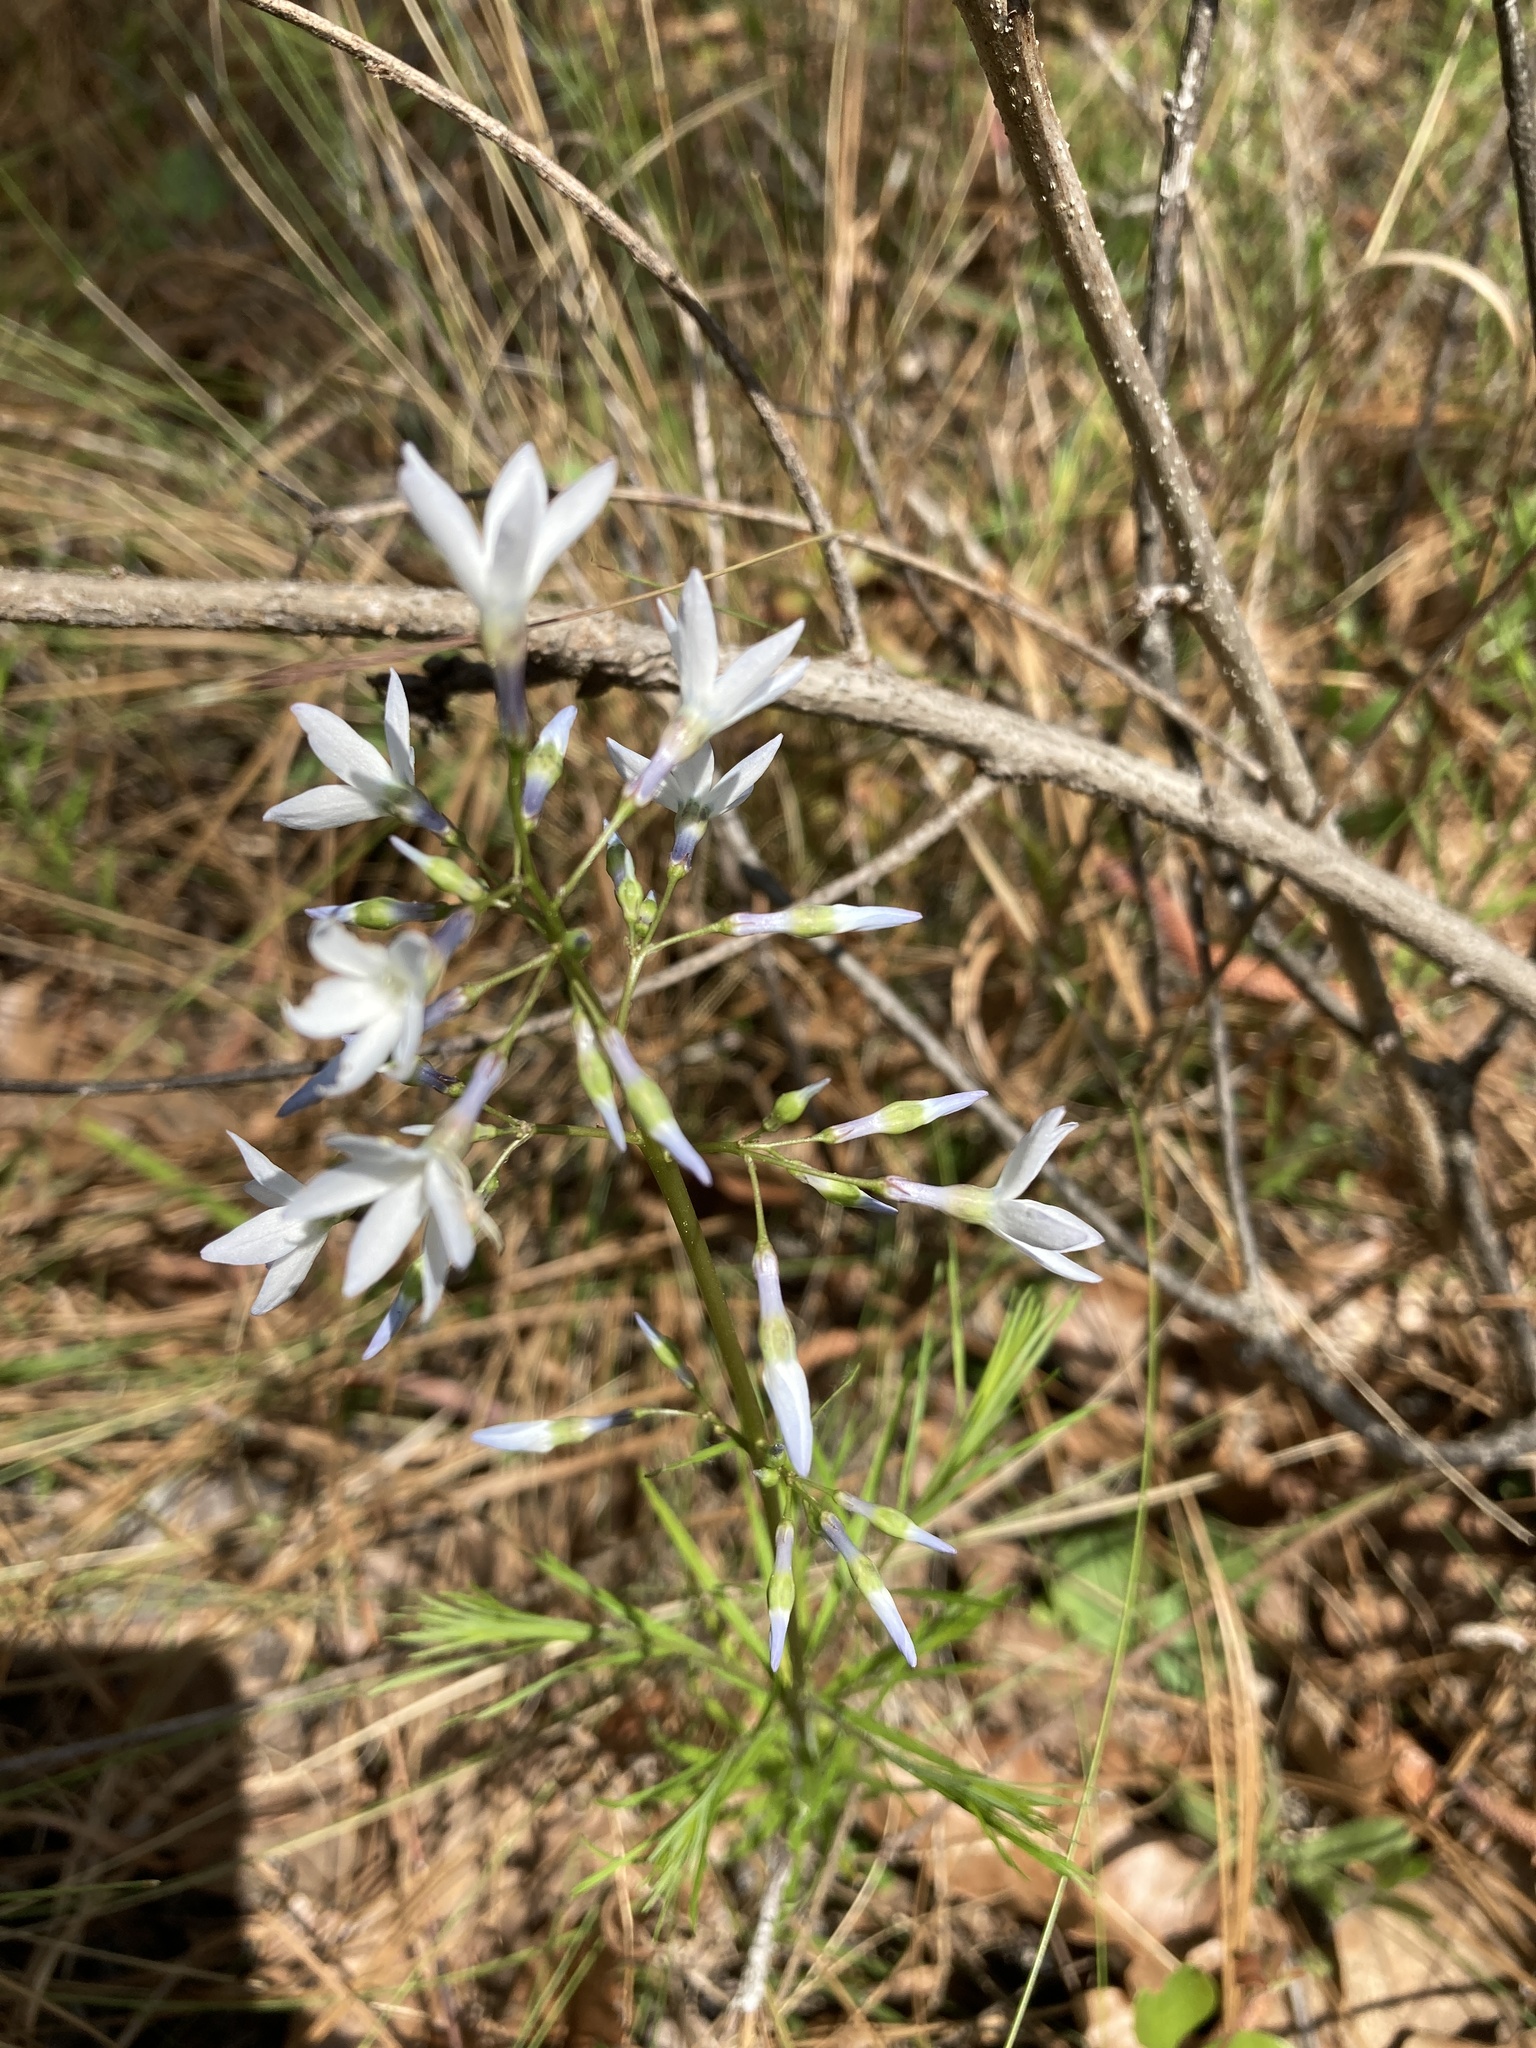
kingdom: Plantae
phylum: Tracheophyta
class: Magnoliopsida
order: Gentianales
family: Apocynaceae
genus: Amsonia
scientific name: Amsonia ciliata
